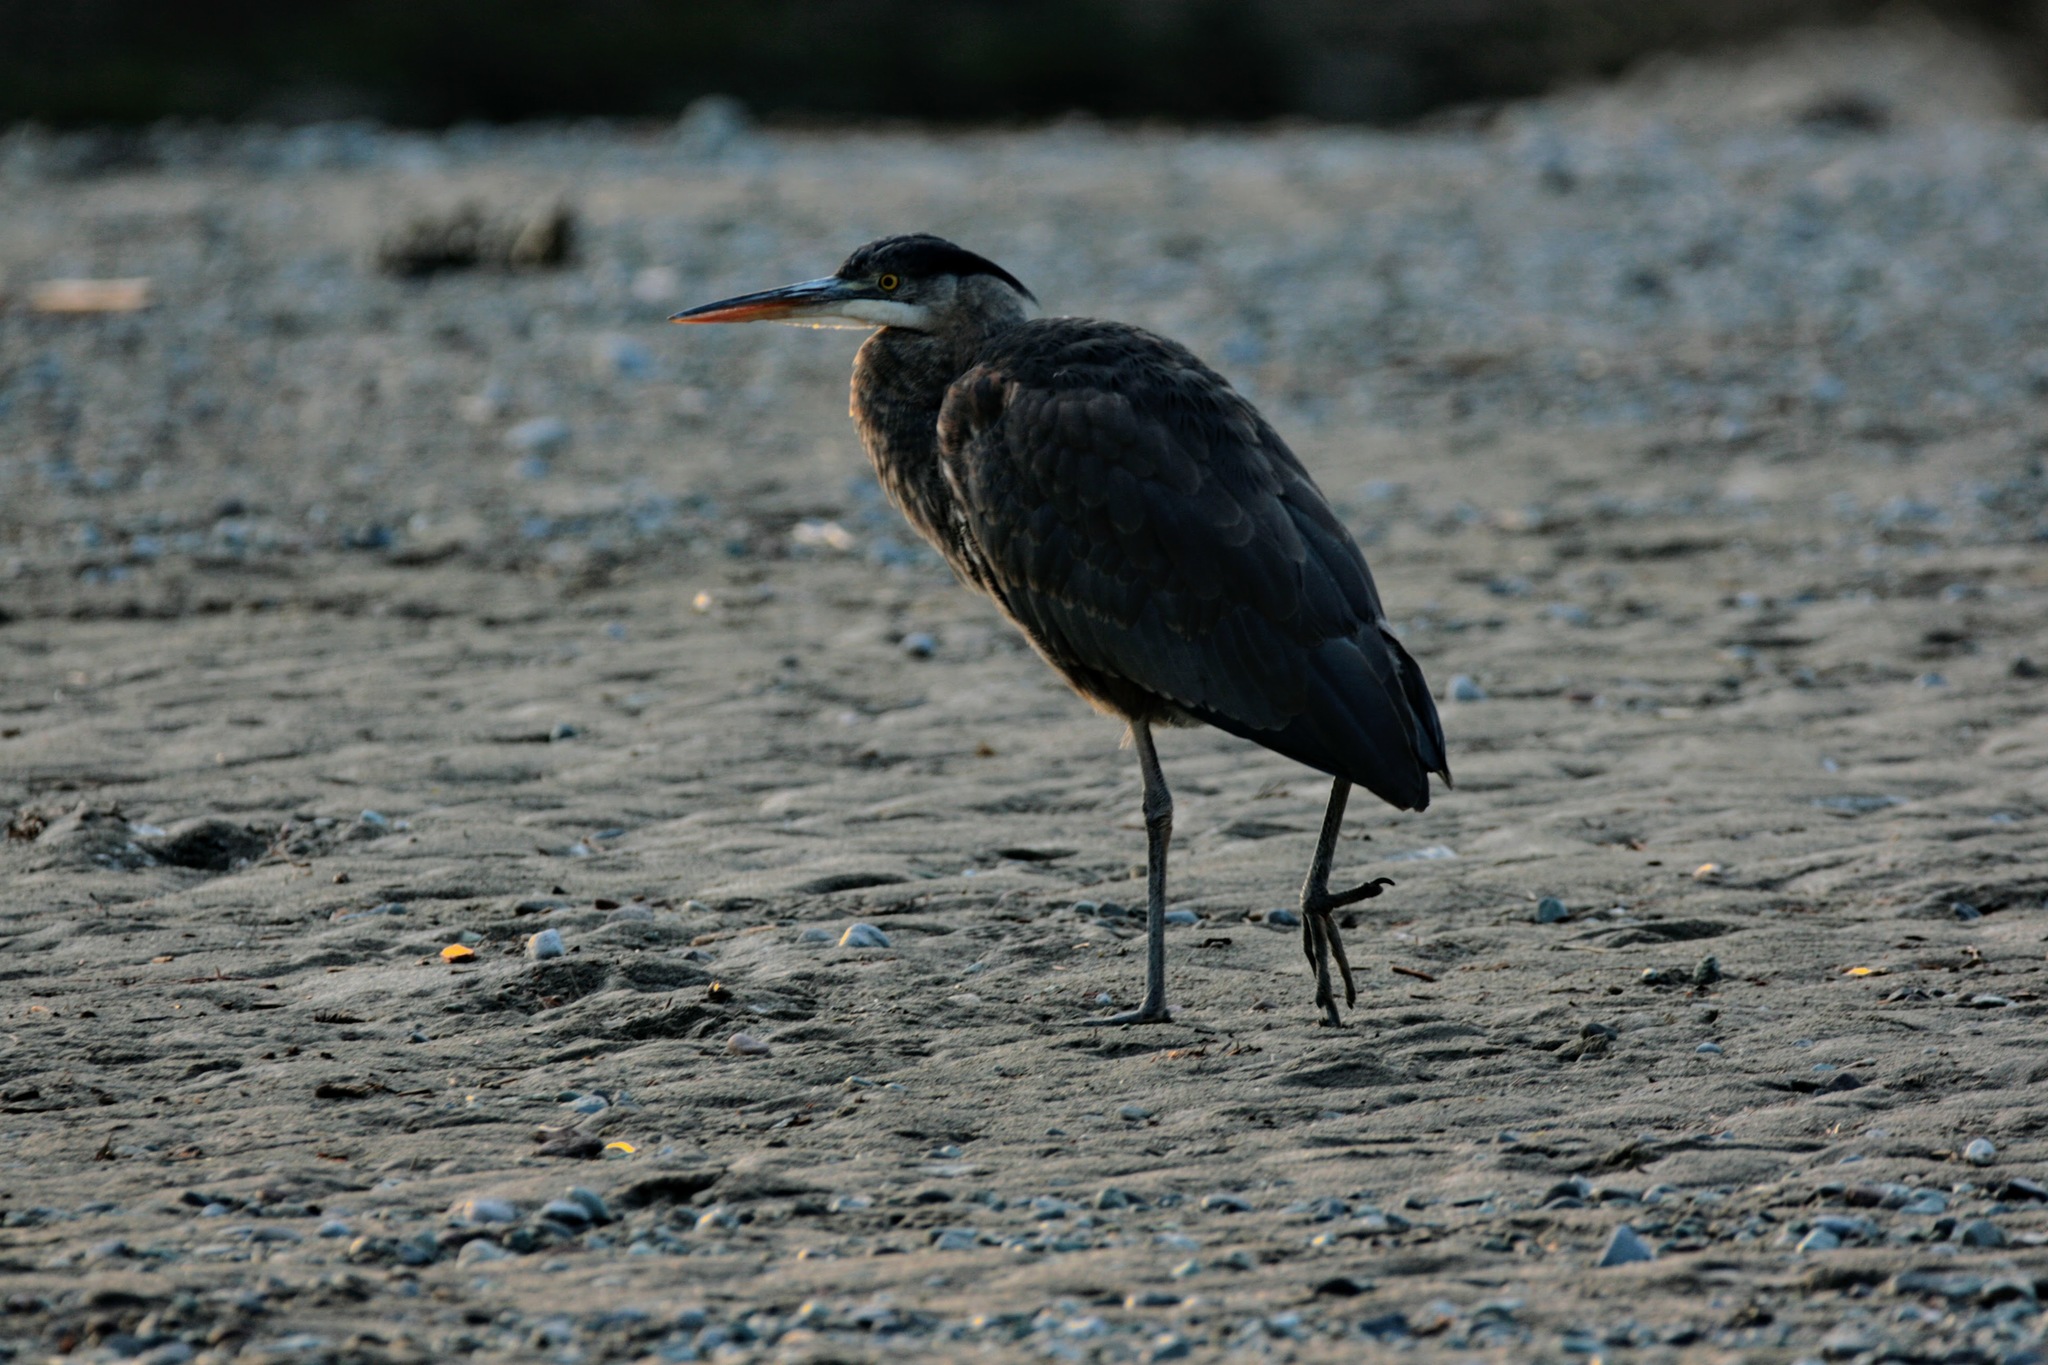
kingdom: Animalia
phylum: Chordata
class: Aves
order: Pelecaniformes
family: Ardeidae
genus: Ardea
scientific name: Ardea herodias
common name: Great blue heron
